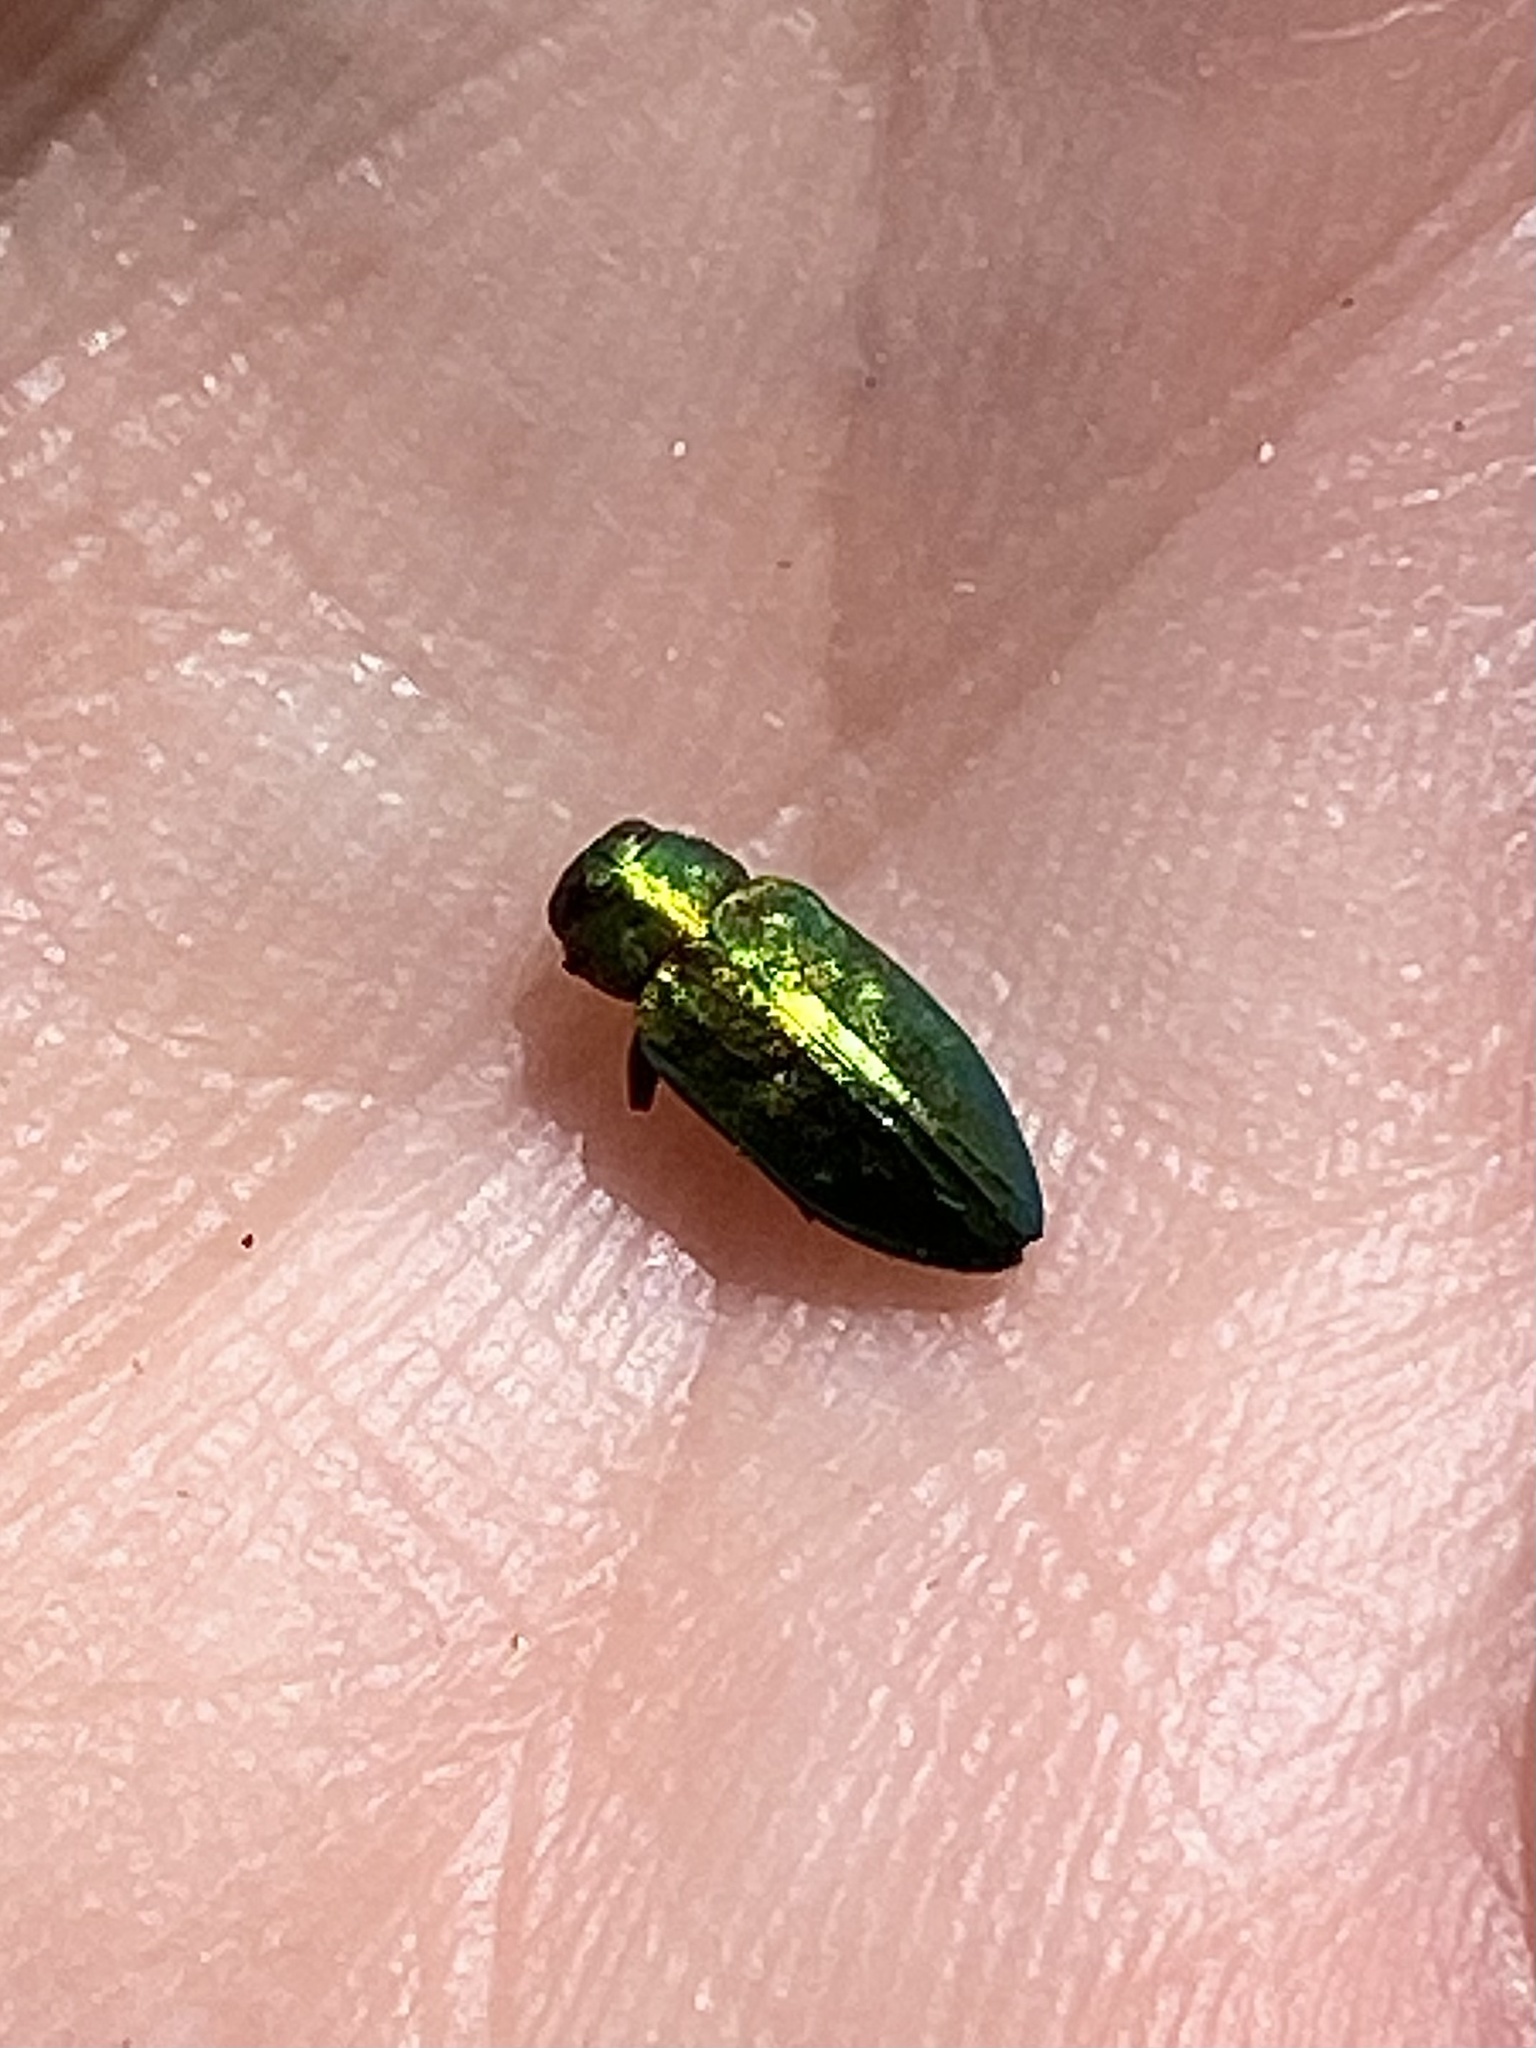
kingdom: Animalia
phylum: Arthropoda
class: Insecta
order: Coleoptera
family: Buprestidae
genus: Chrysobothris
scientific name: Chrysobothris harrisii
